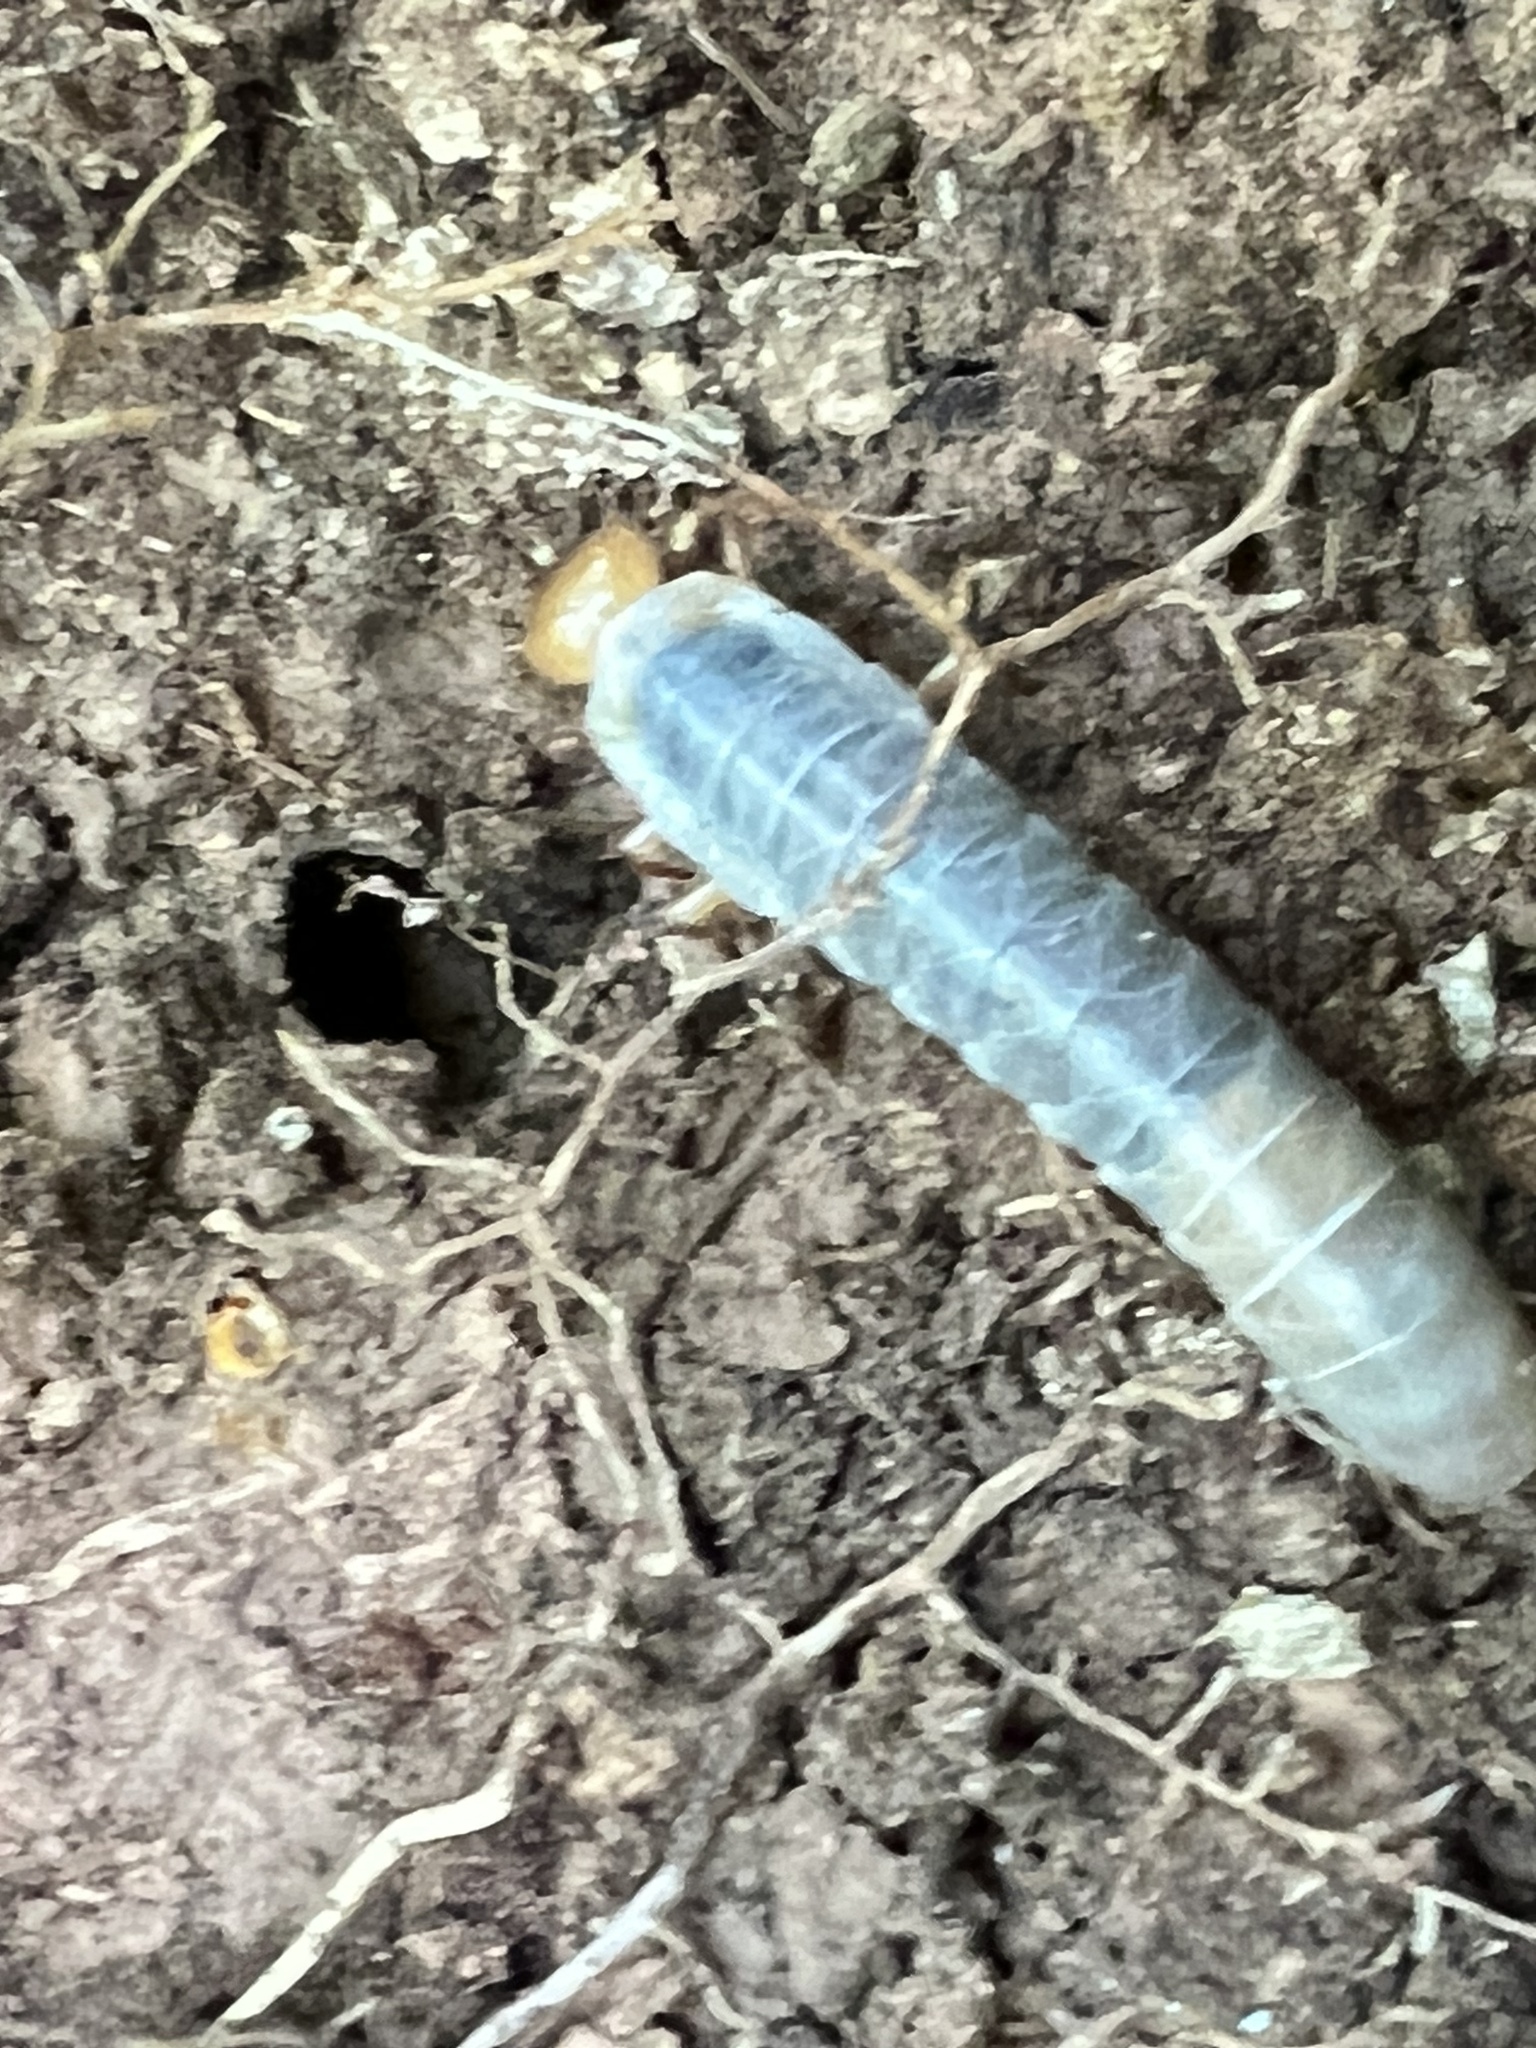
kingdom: Animalia
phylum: Arthropoda
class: Insecta
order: Coleoptera
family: Passalidae
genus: Odontotaenius
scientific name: Odontotaenius disjunctus
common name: Patent leather beetle
